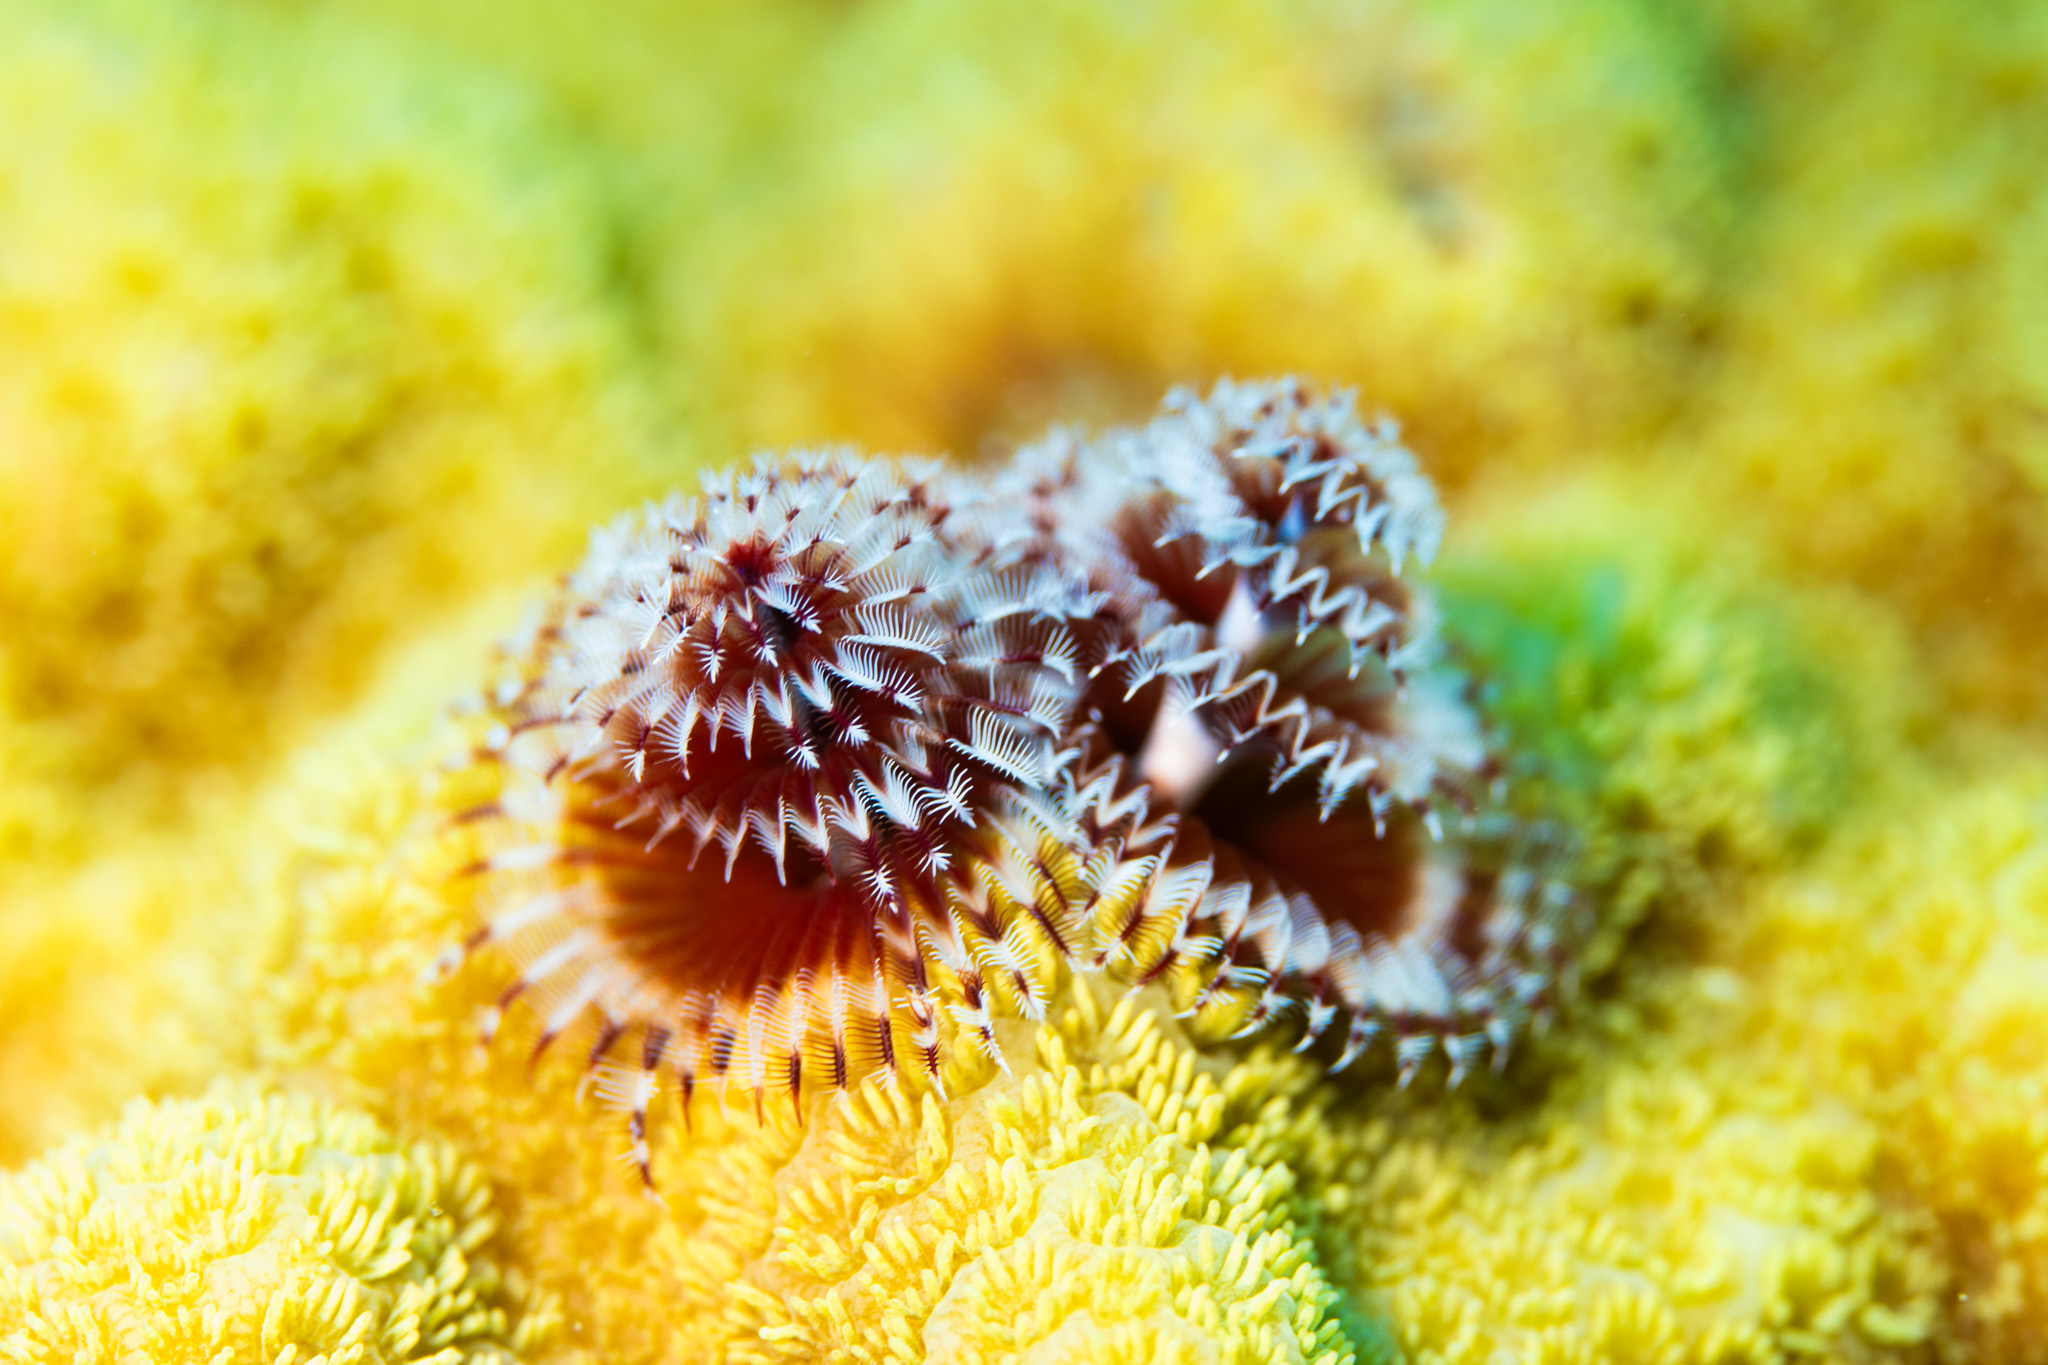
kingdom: Animalia
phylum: Annelida
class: Polychaeta
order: Sabellida
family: Serpulidae
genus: Spirobranchus
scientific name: Spirobranchus giganteus
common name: Christmas tree worm
